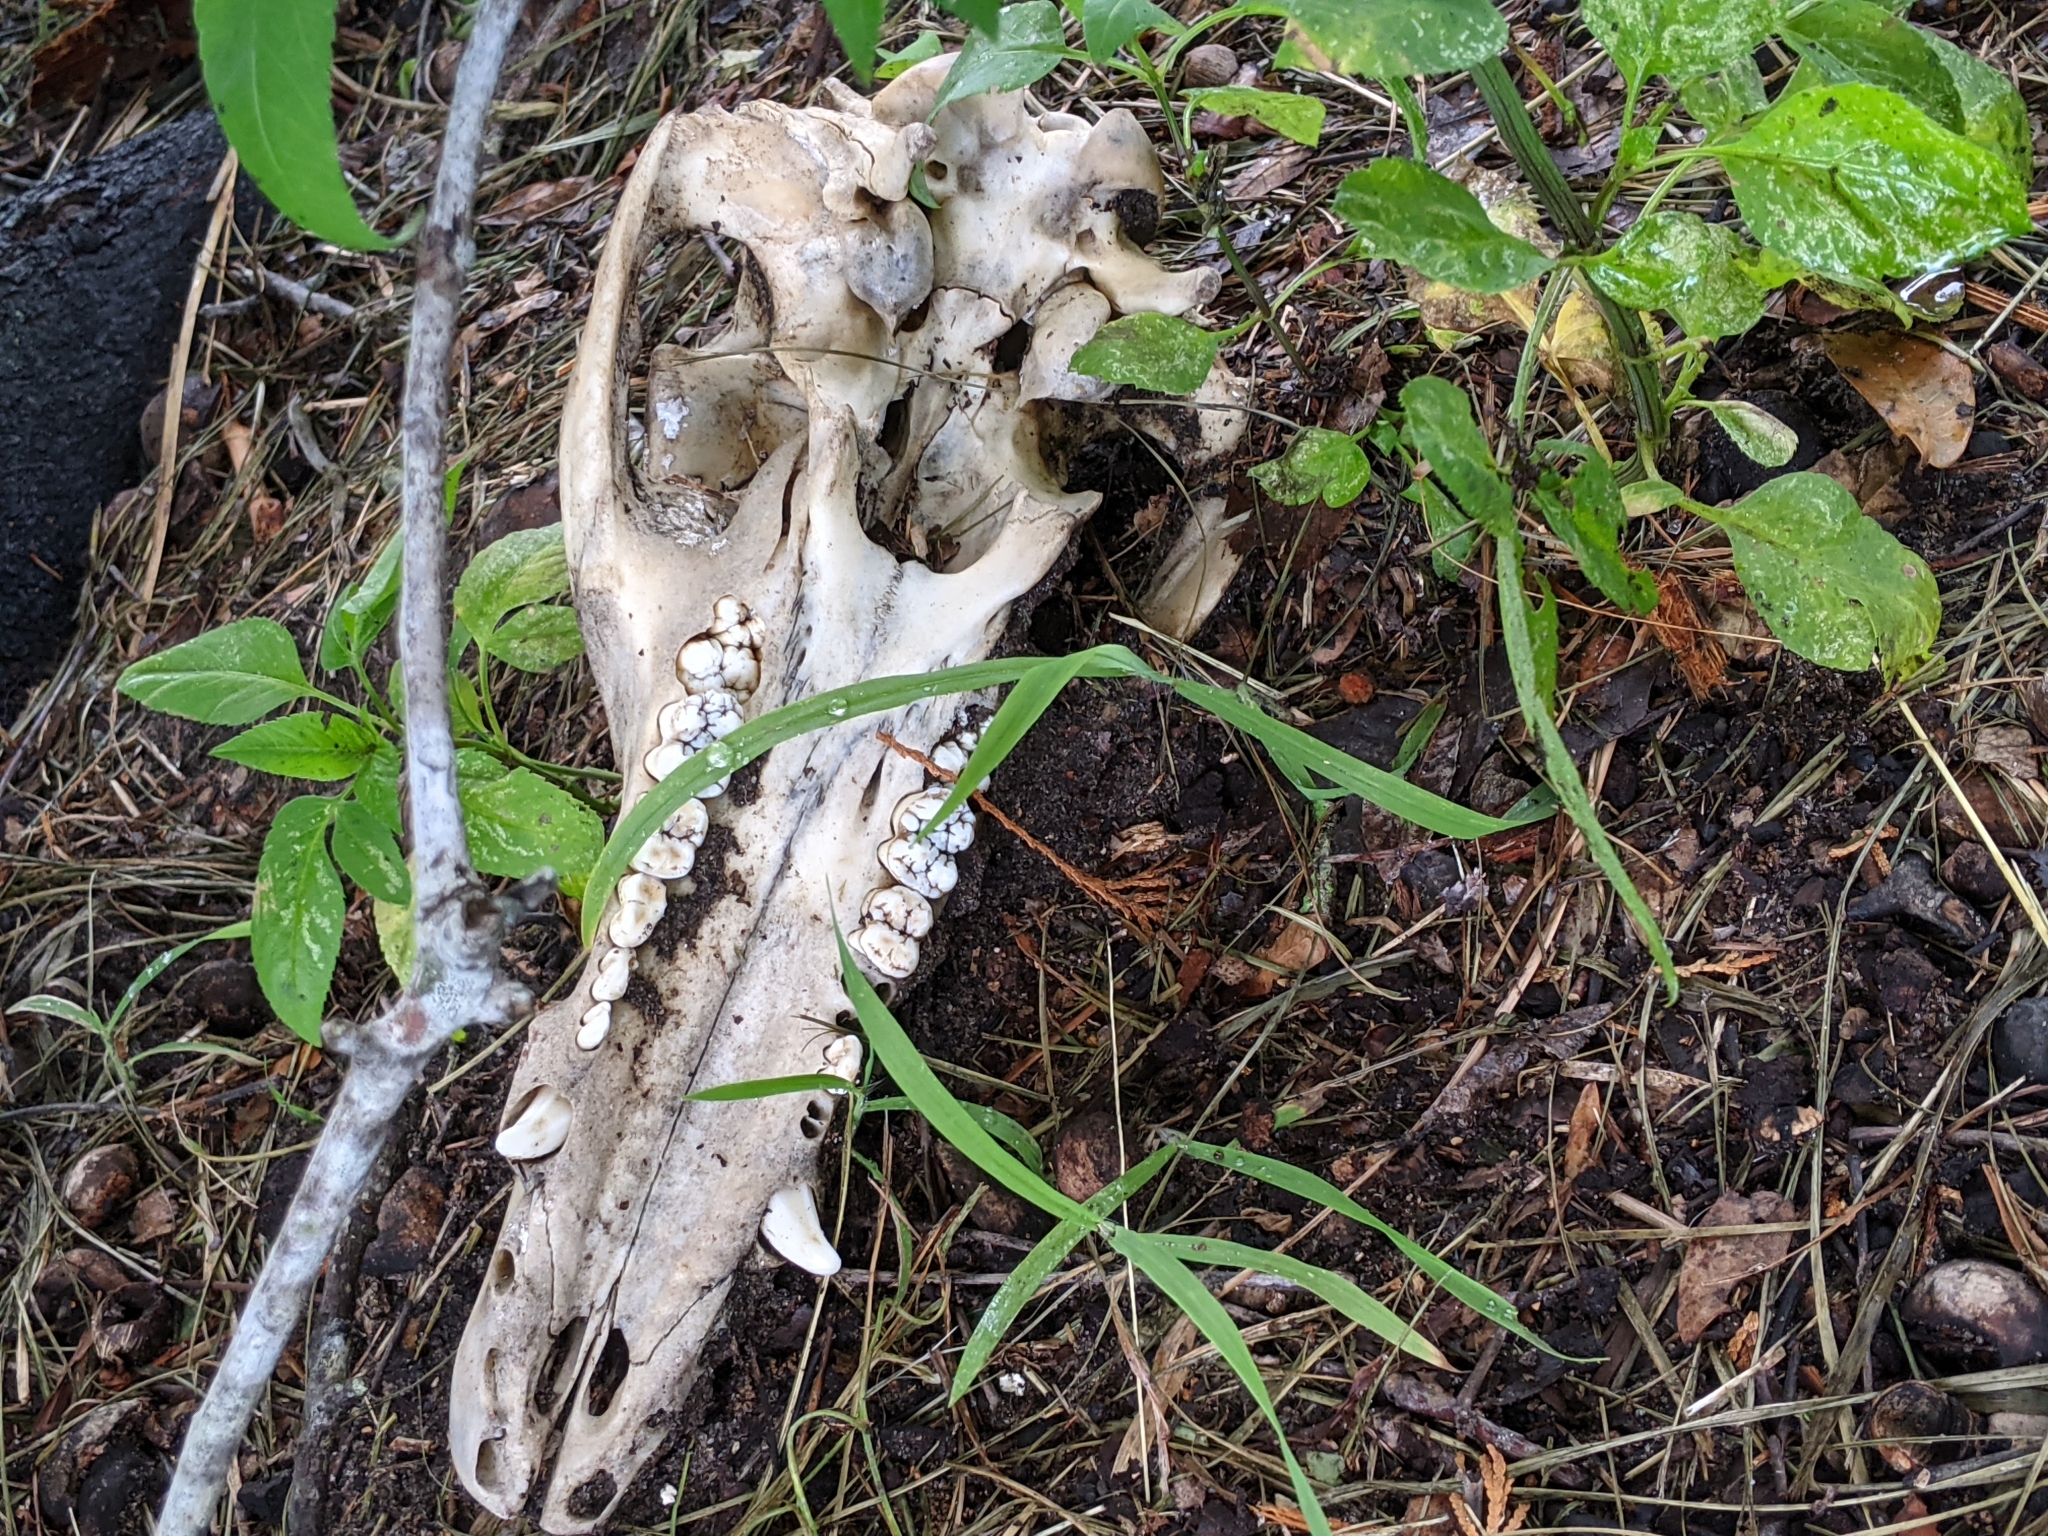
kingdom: Animalia
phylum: Chordata
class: Mammalia
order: Artiodactyla
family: Suidae
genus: Sus
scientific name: Sus scrofa
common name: Wild boar
